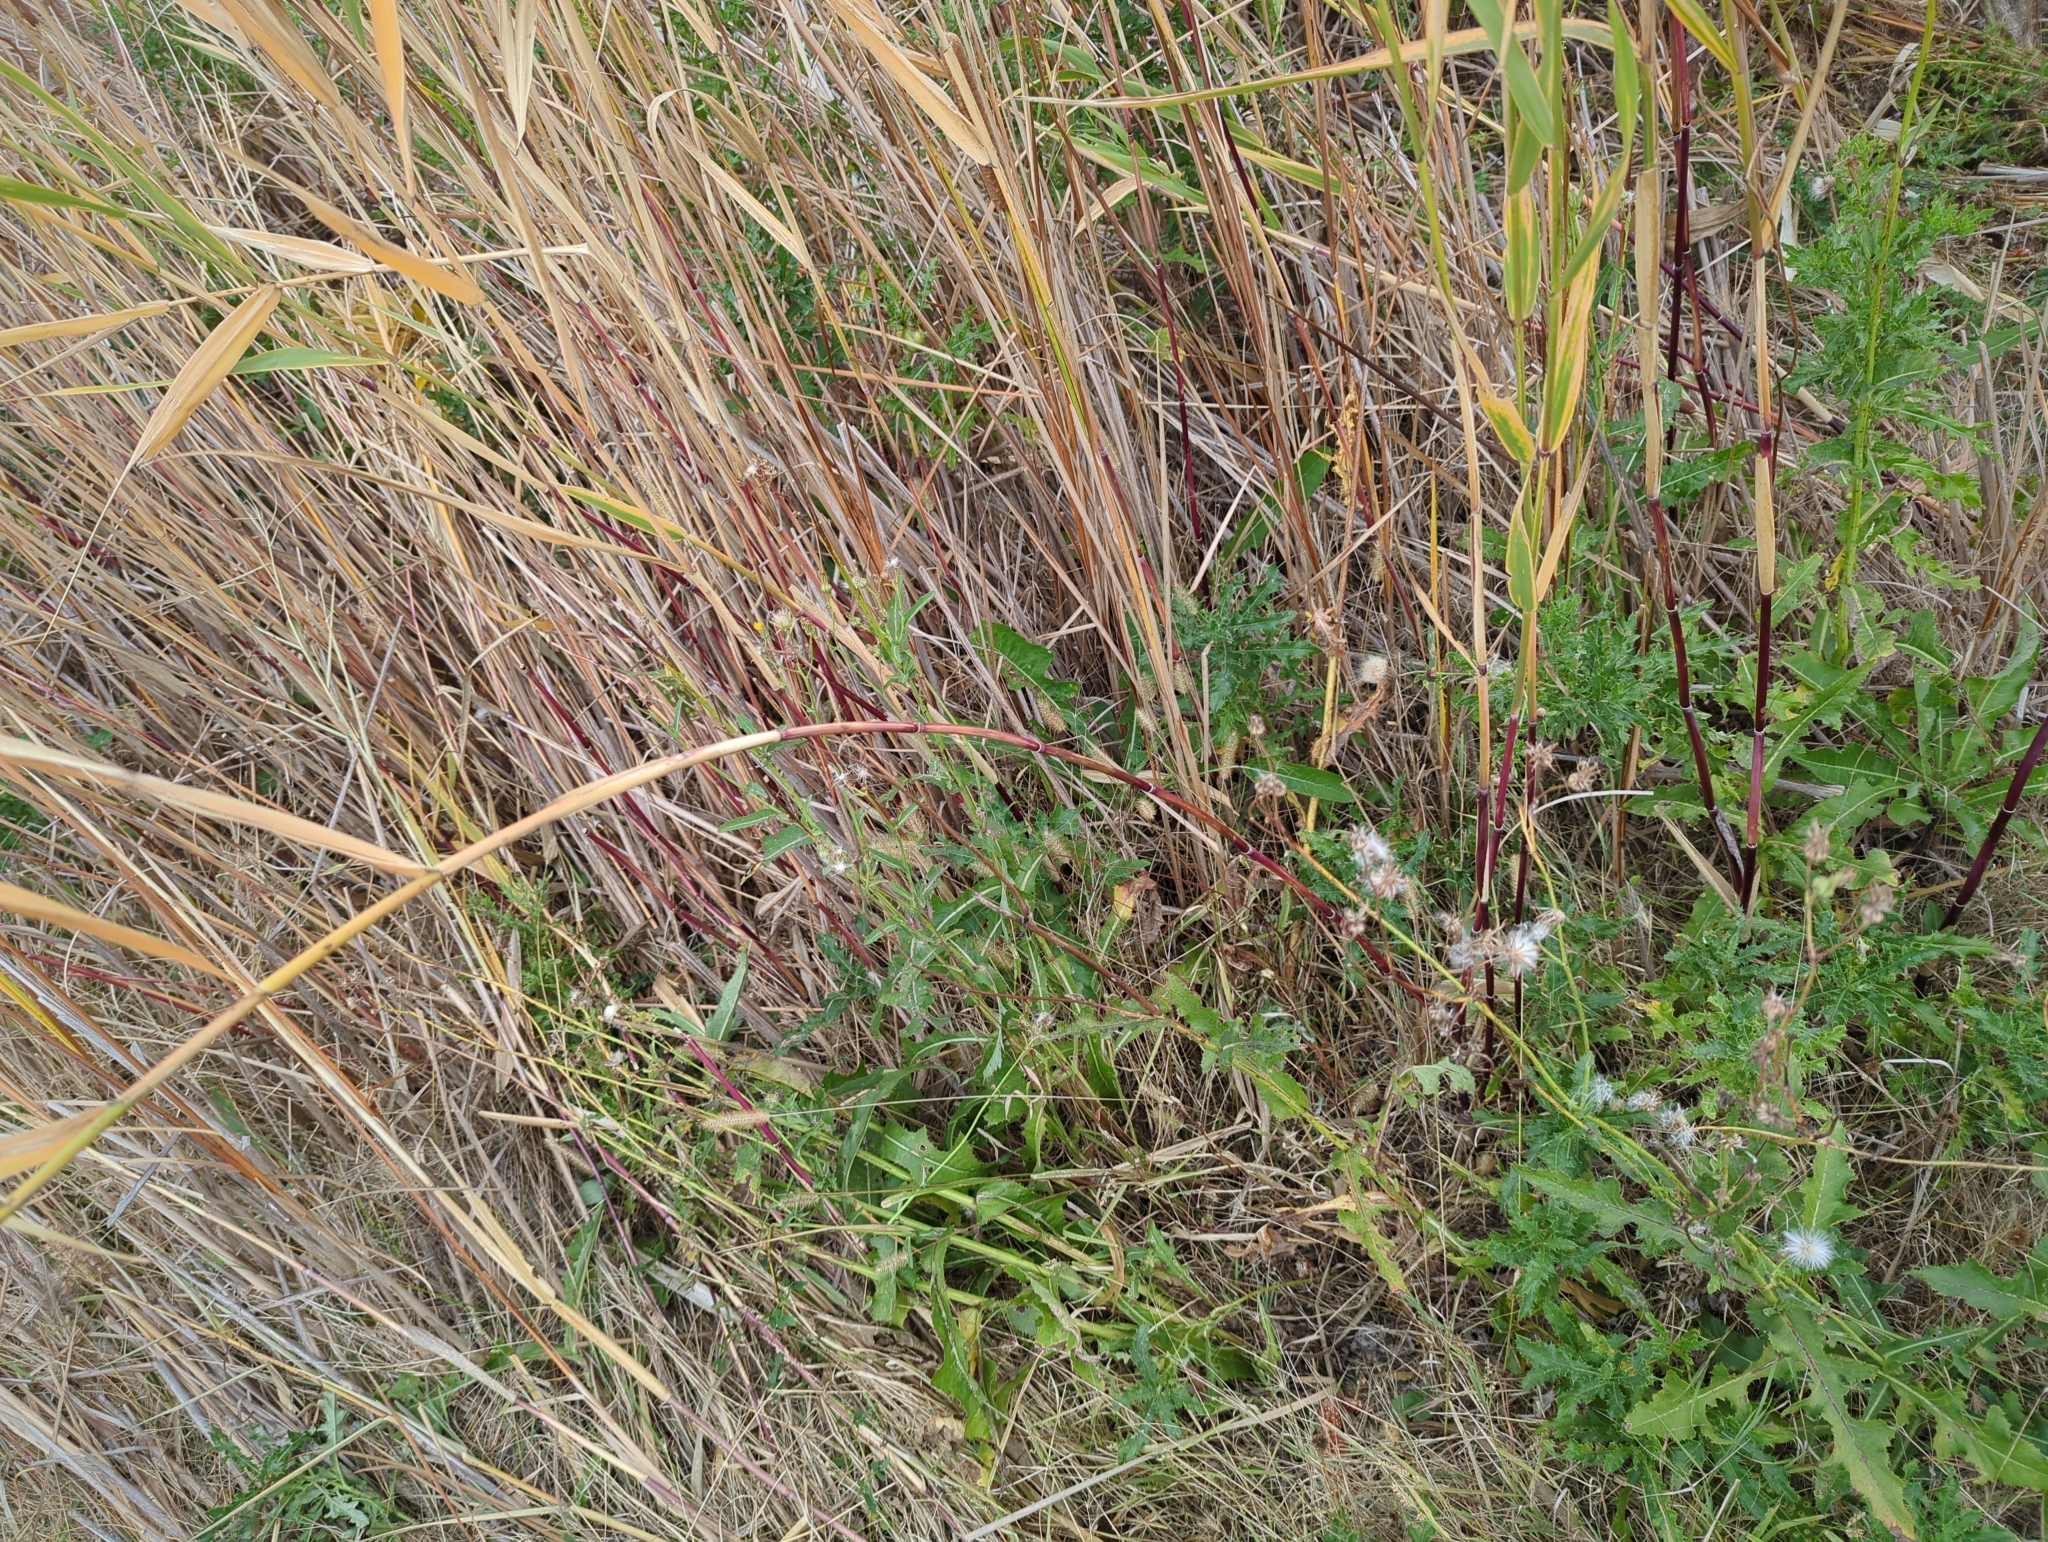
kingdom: Plantae
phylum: Tracheophyta
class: Liliopsida
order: Poales
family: Poaceae
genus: Phragmites
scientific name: Phragmites australis
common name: Common reed
